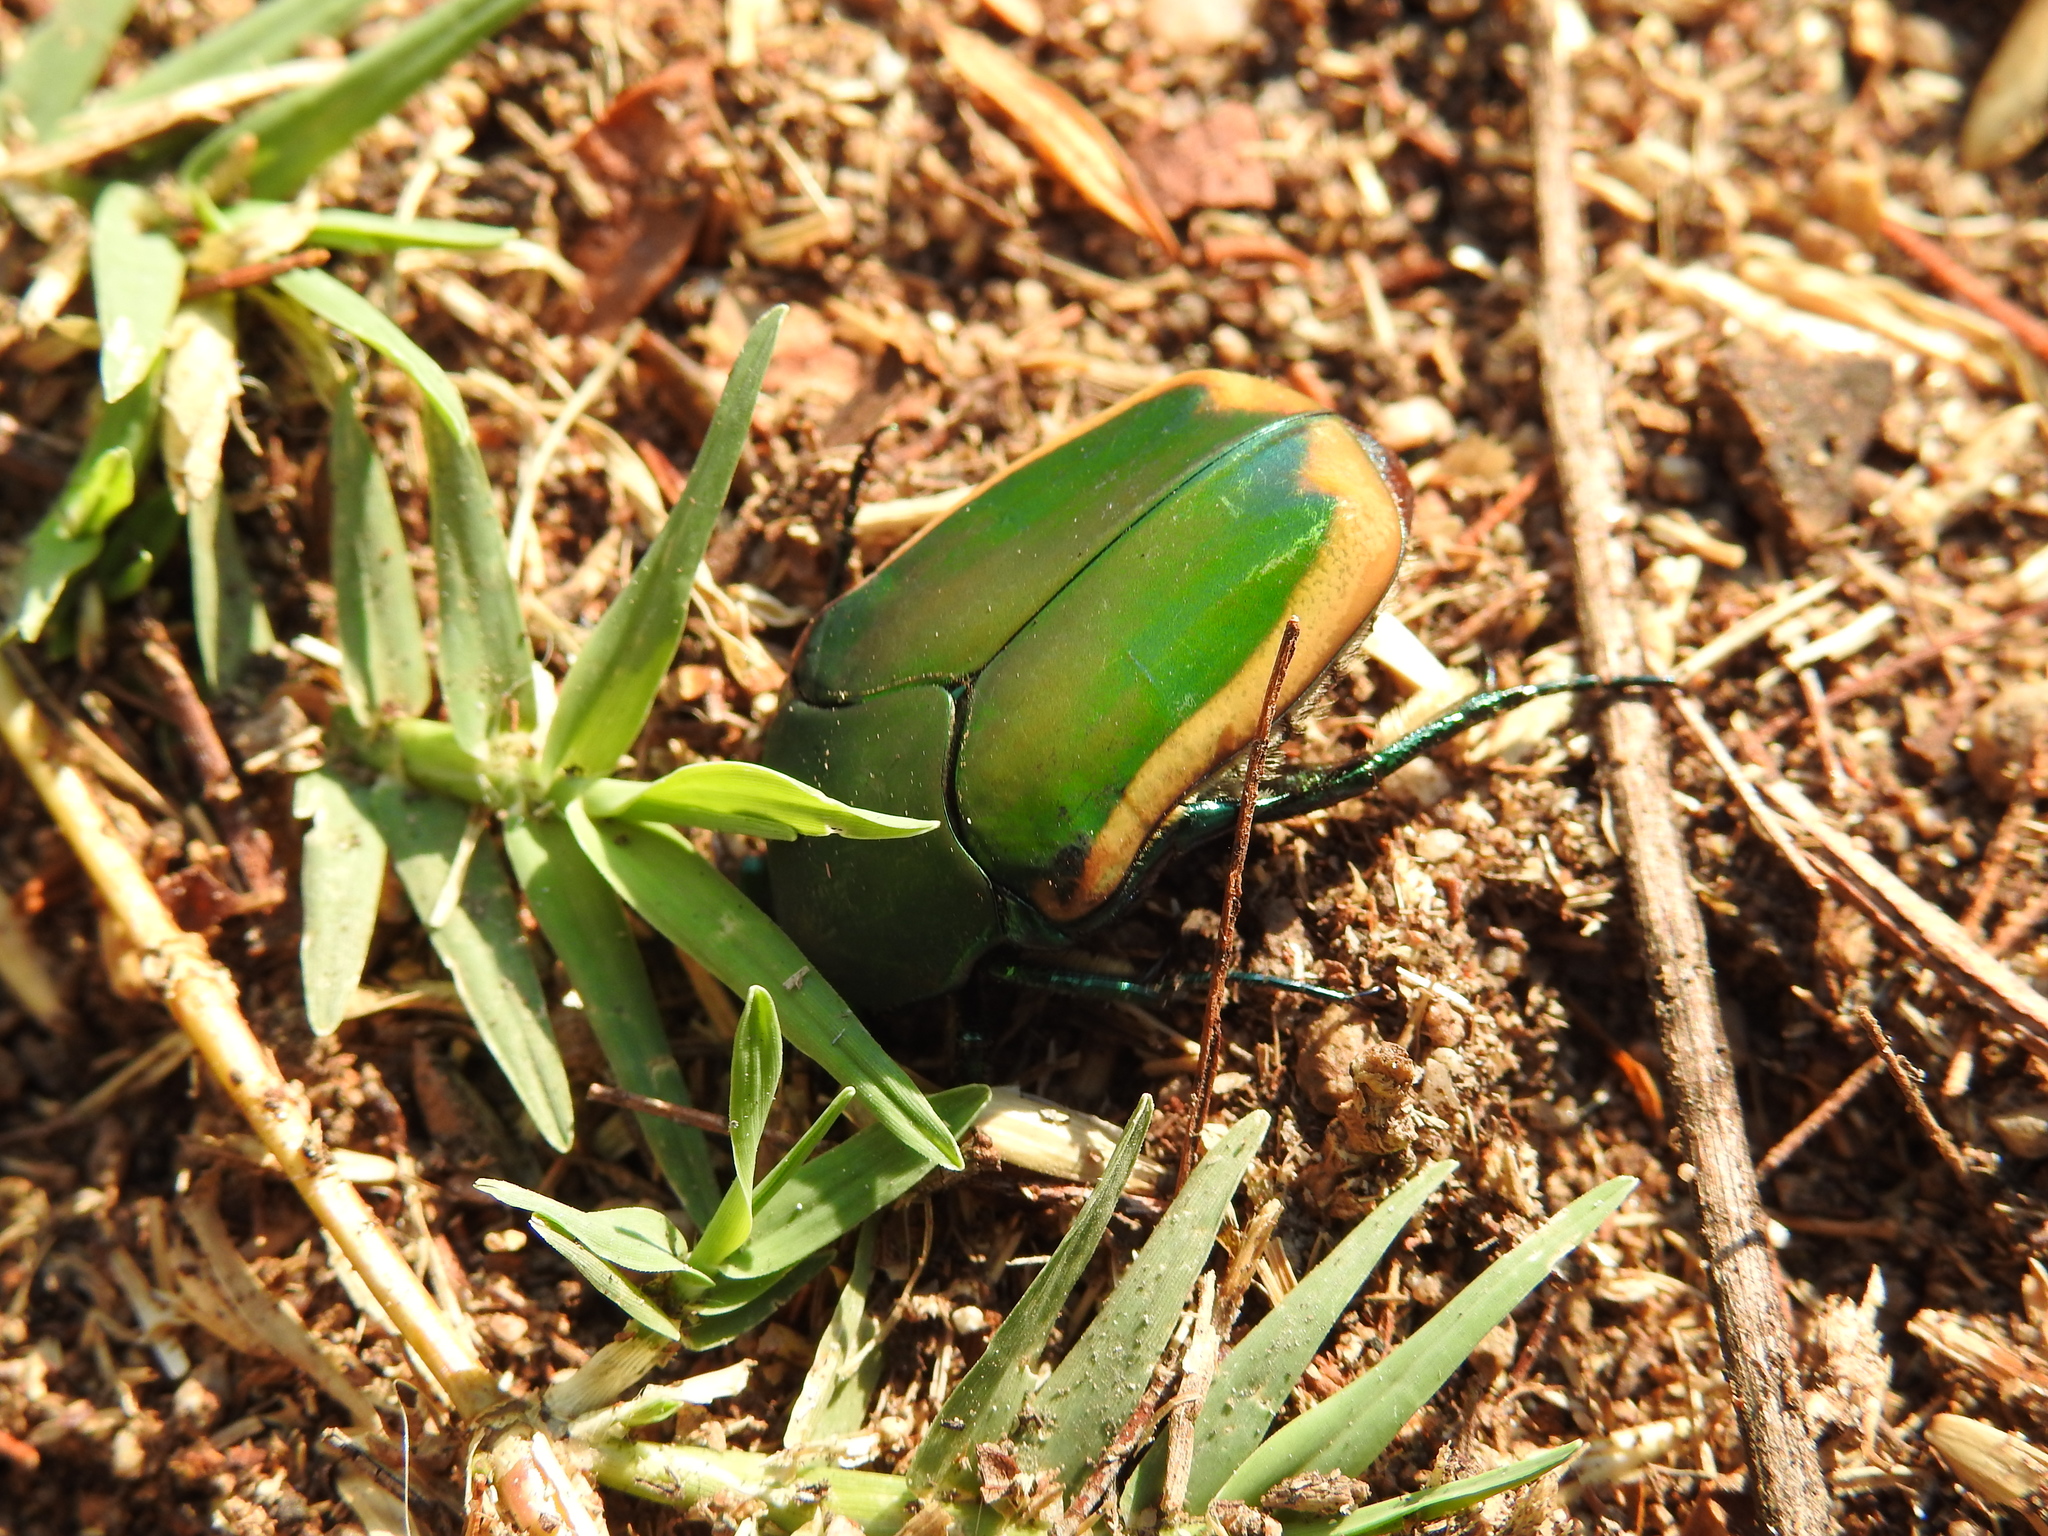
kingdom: Animalia
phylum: Arthropoda
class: Insecta
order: Coleoptera
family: Scarabaeidae
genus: Cotinis
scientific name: Cotinis mutabilis
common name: Figeater beetle
